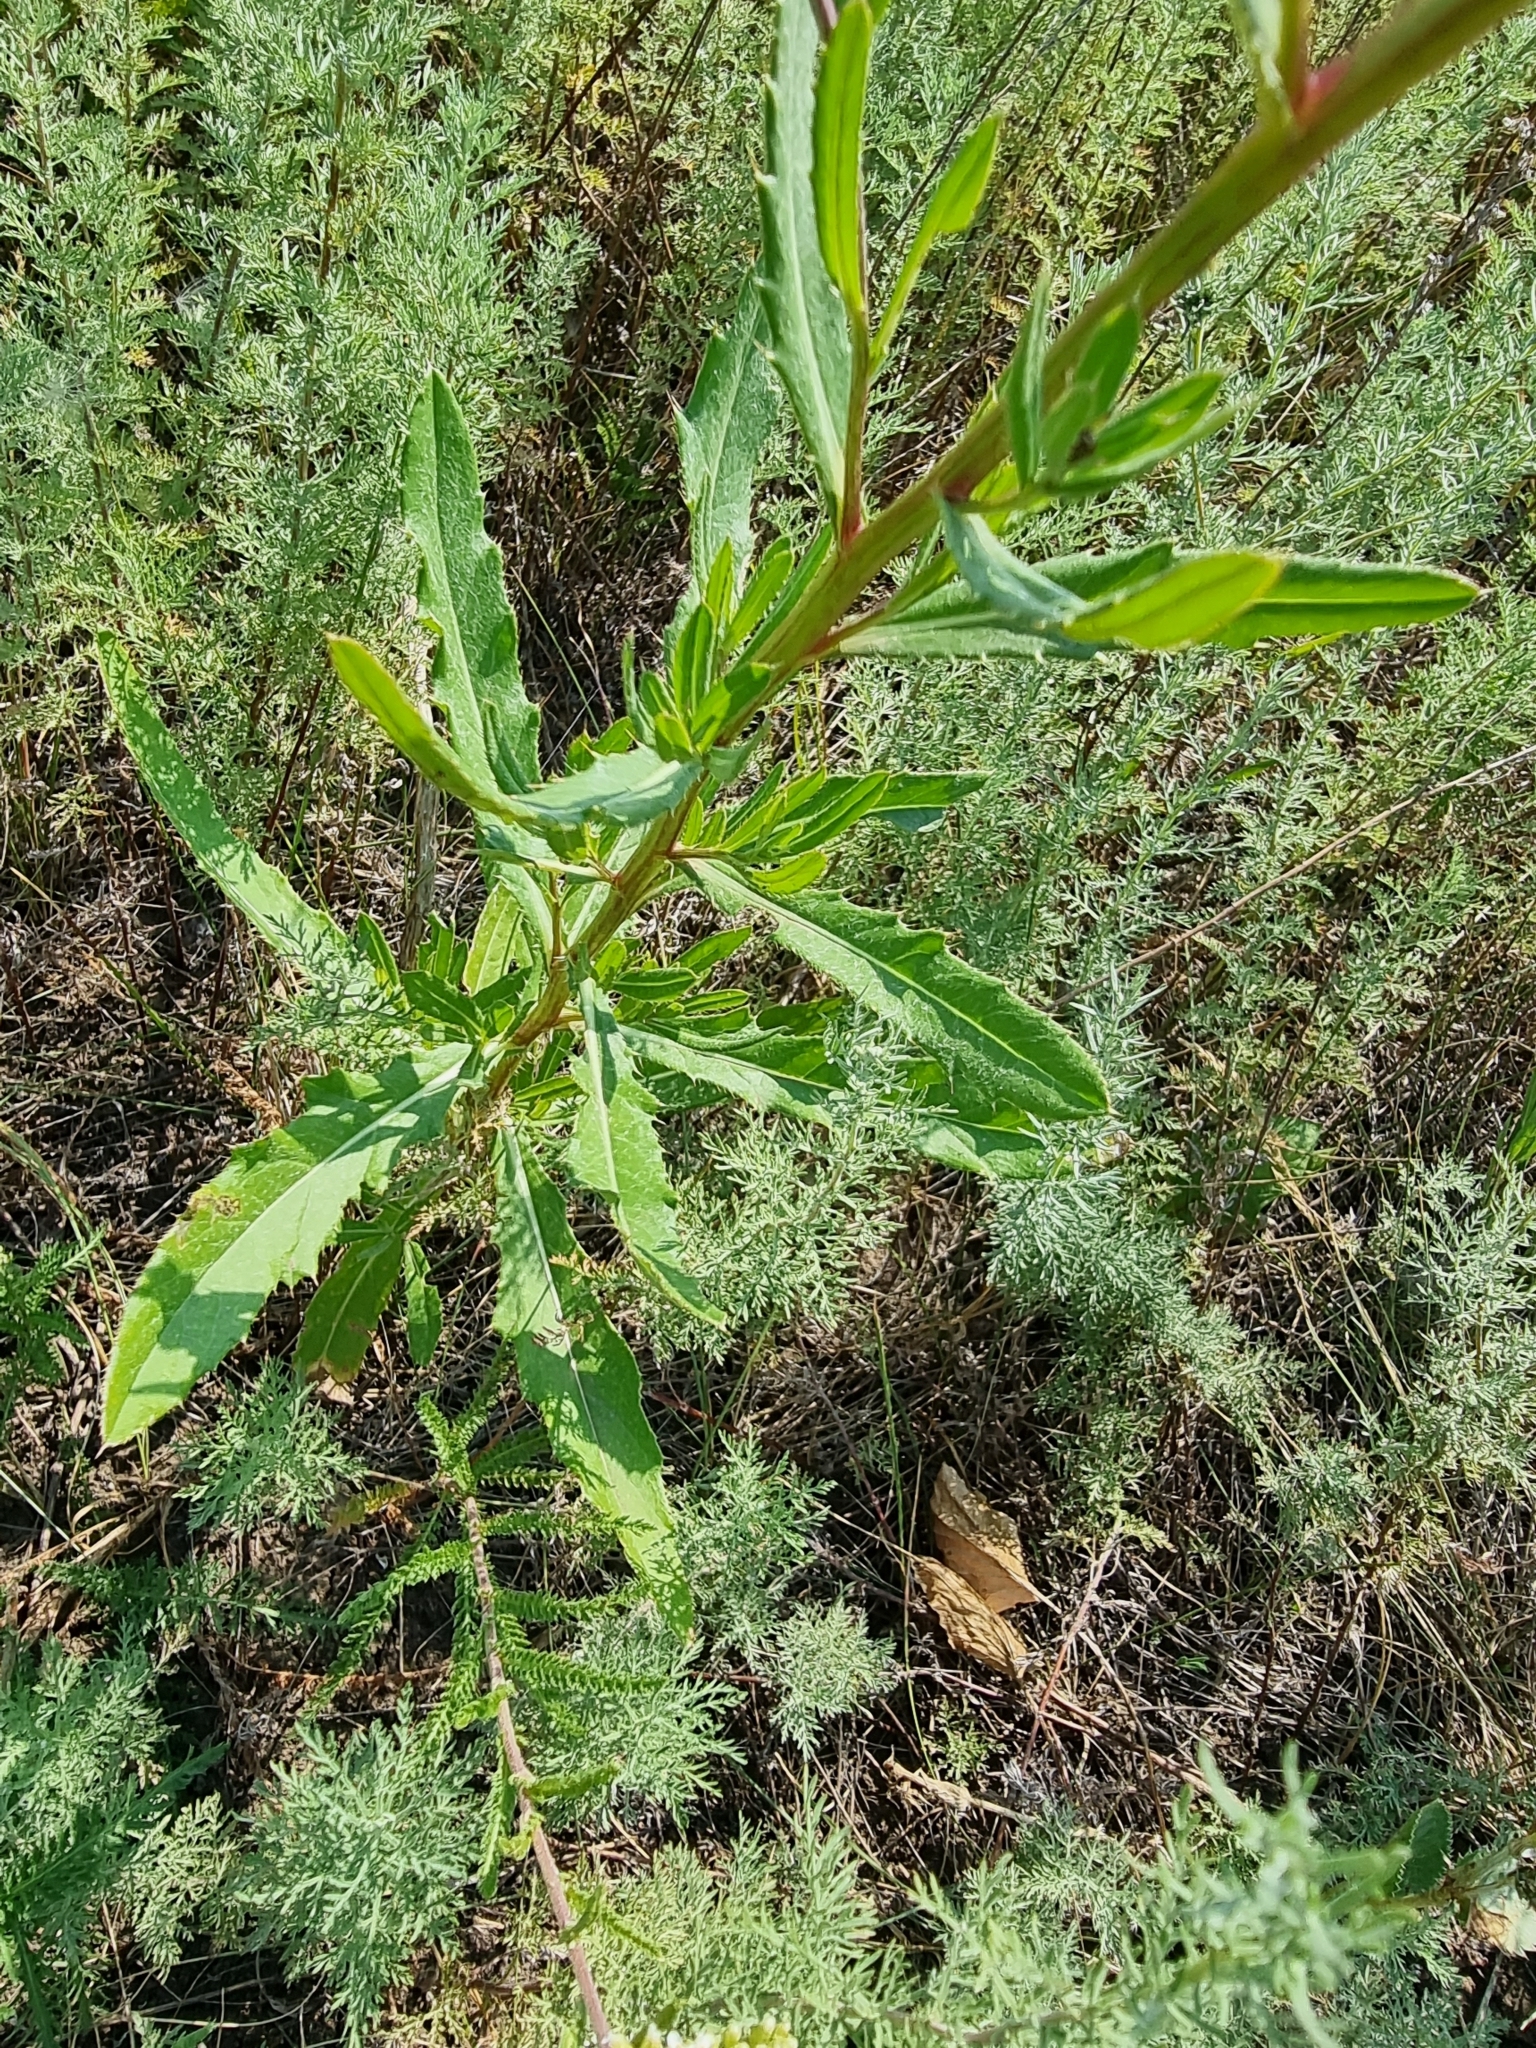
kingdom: Plantae
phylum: Tracheophyta
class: Magnoliopsida
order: Asterales
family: Asteraceae
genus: Cirsium
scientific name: Cirsium arvense
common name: Creeping thistle
